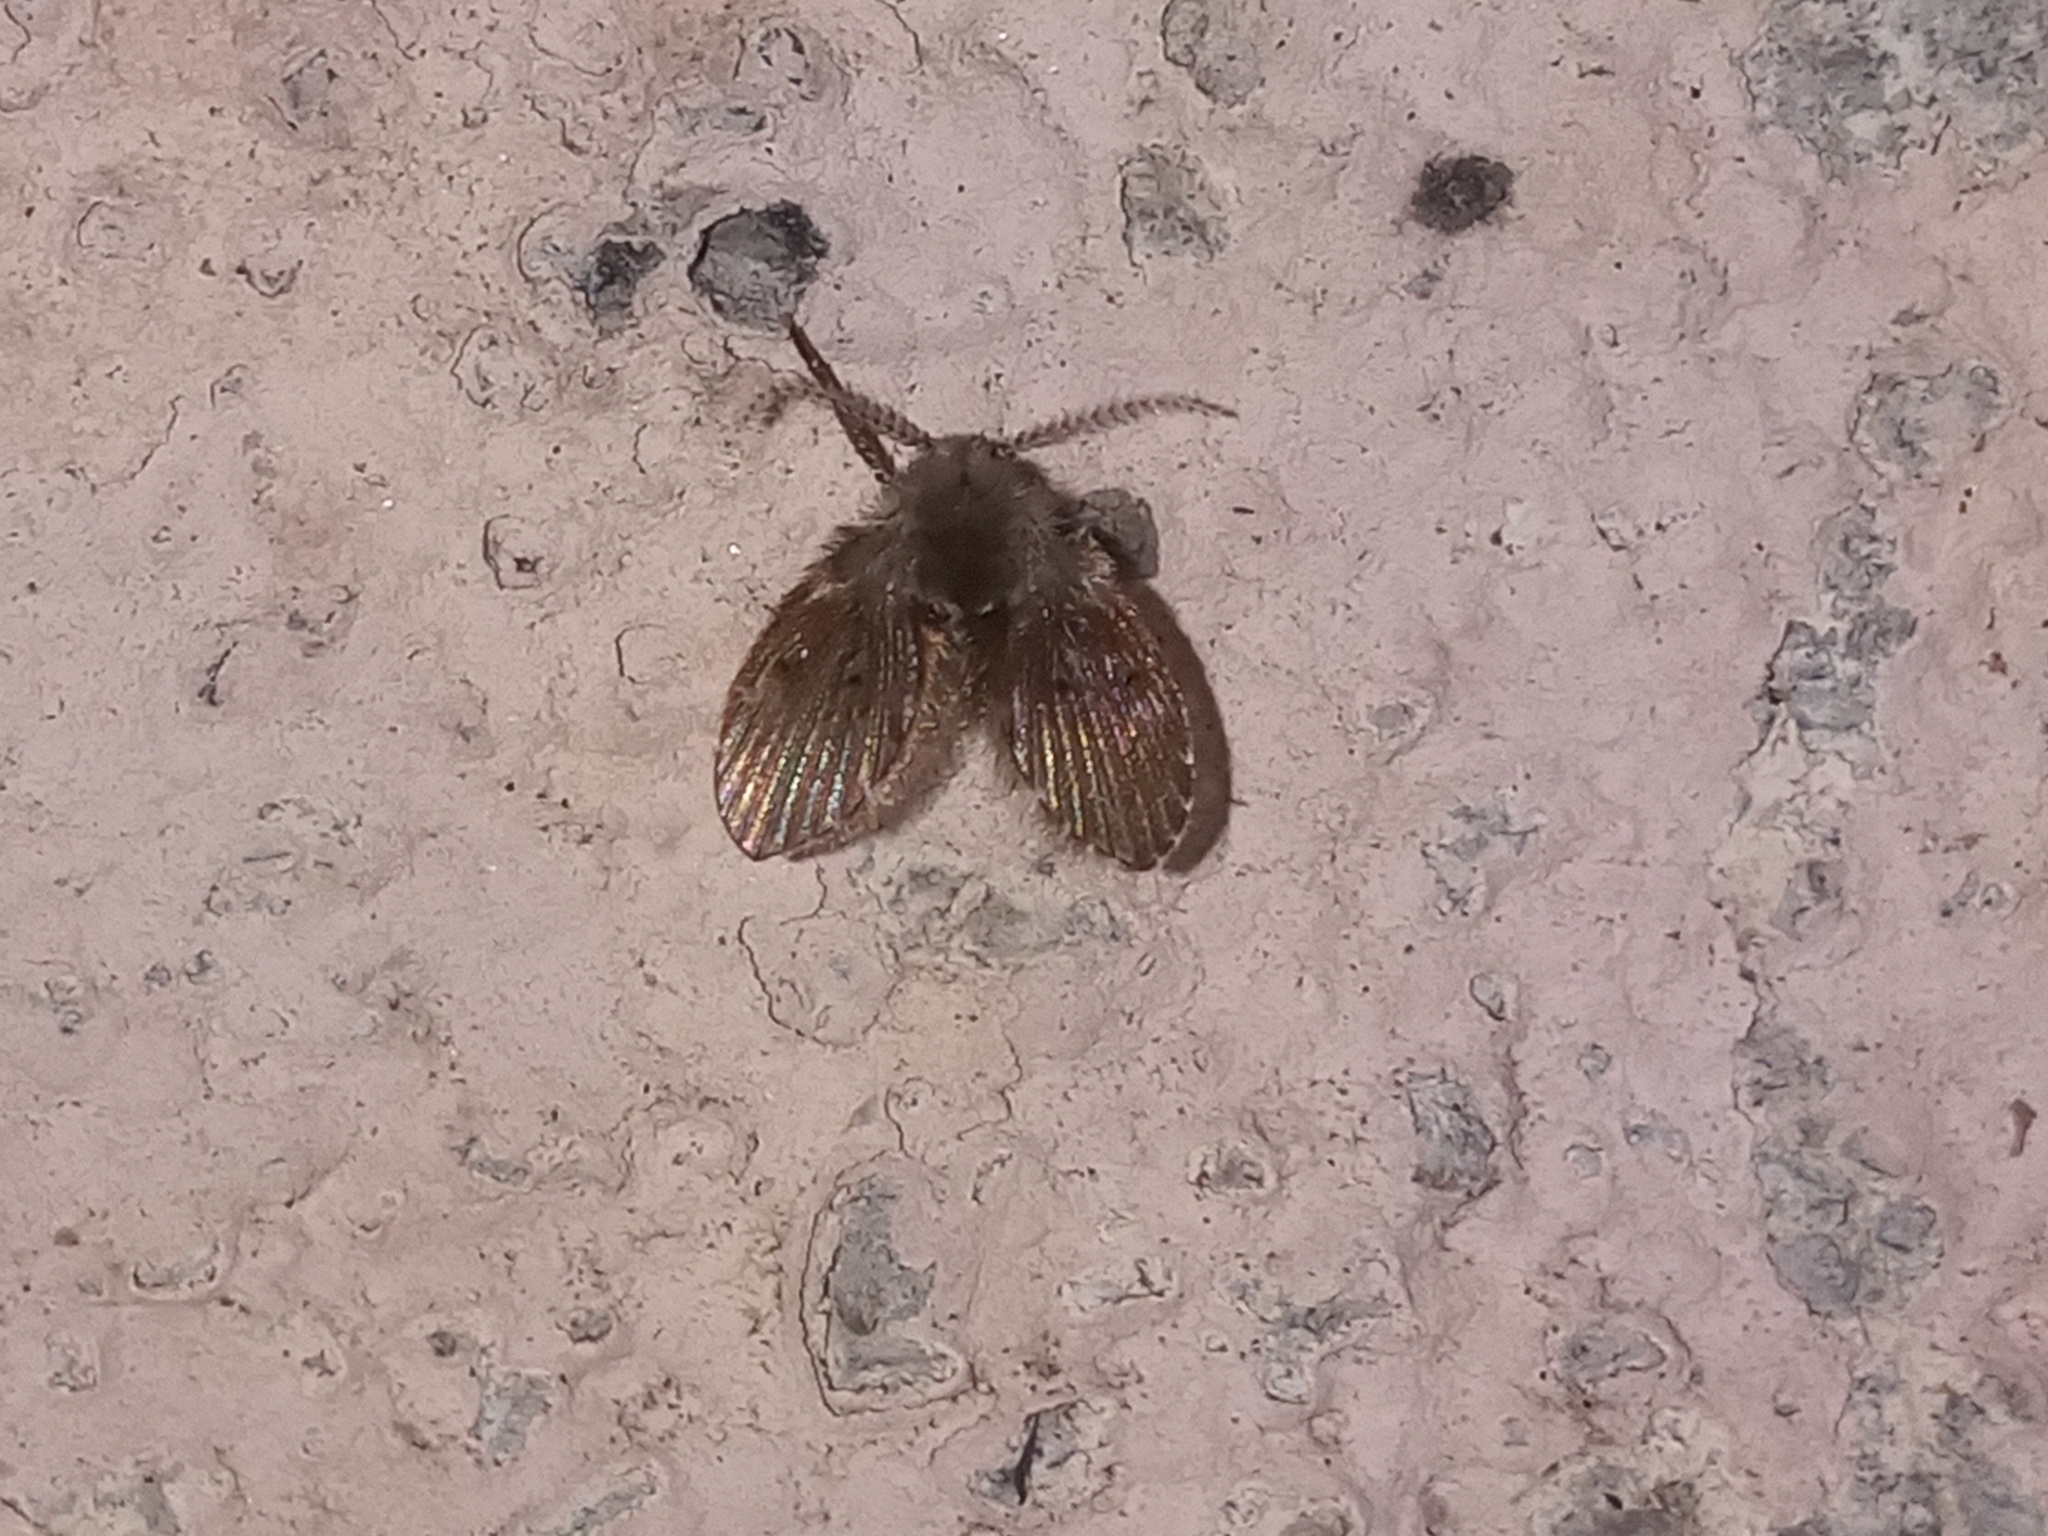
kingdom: Animalia
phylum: Arthropoda
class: Insecta
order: Diptera
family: Psychodidae
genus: Clogmia
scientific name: Clogmia albipunctatus
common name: White-spotted moth fly
